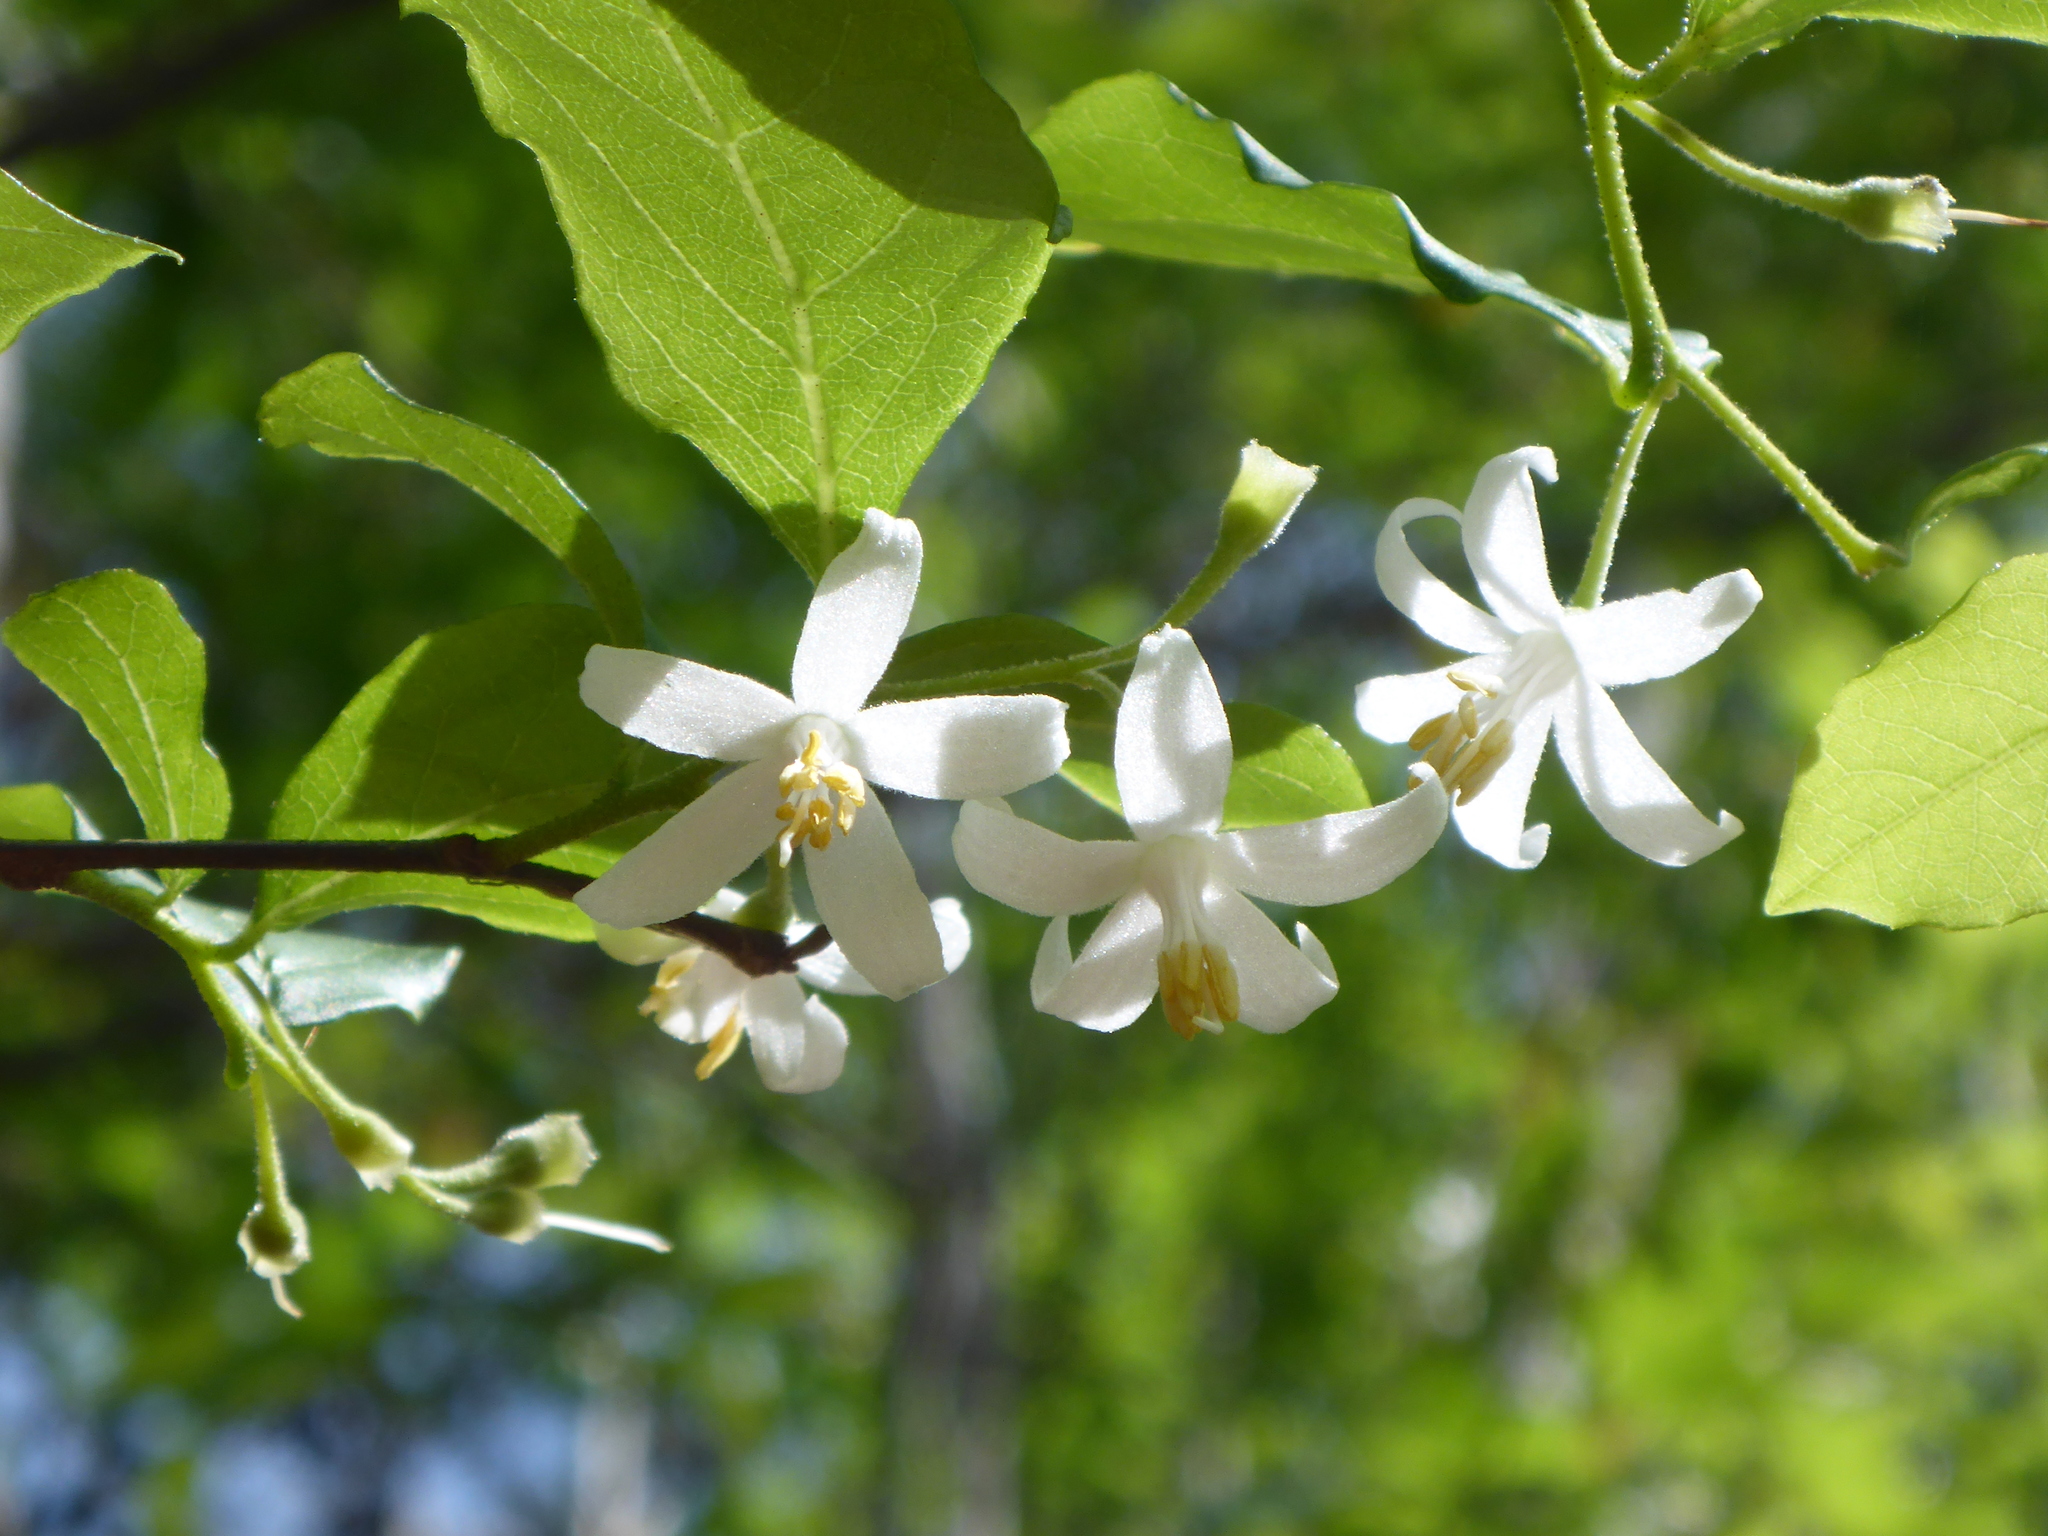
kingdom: Plantae
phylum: Tracheophyta
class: Magnoliopsida
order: Ericales
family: Styracaceae
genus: Styrax
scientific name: Styrax americanus
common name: American snowbell
